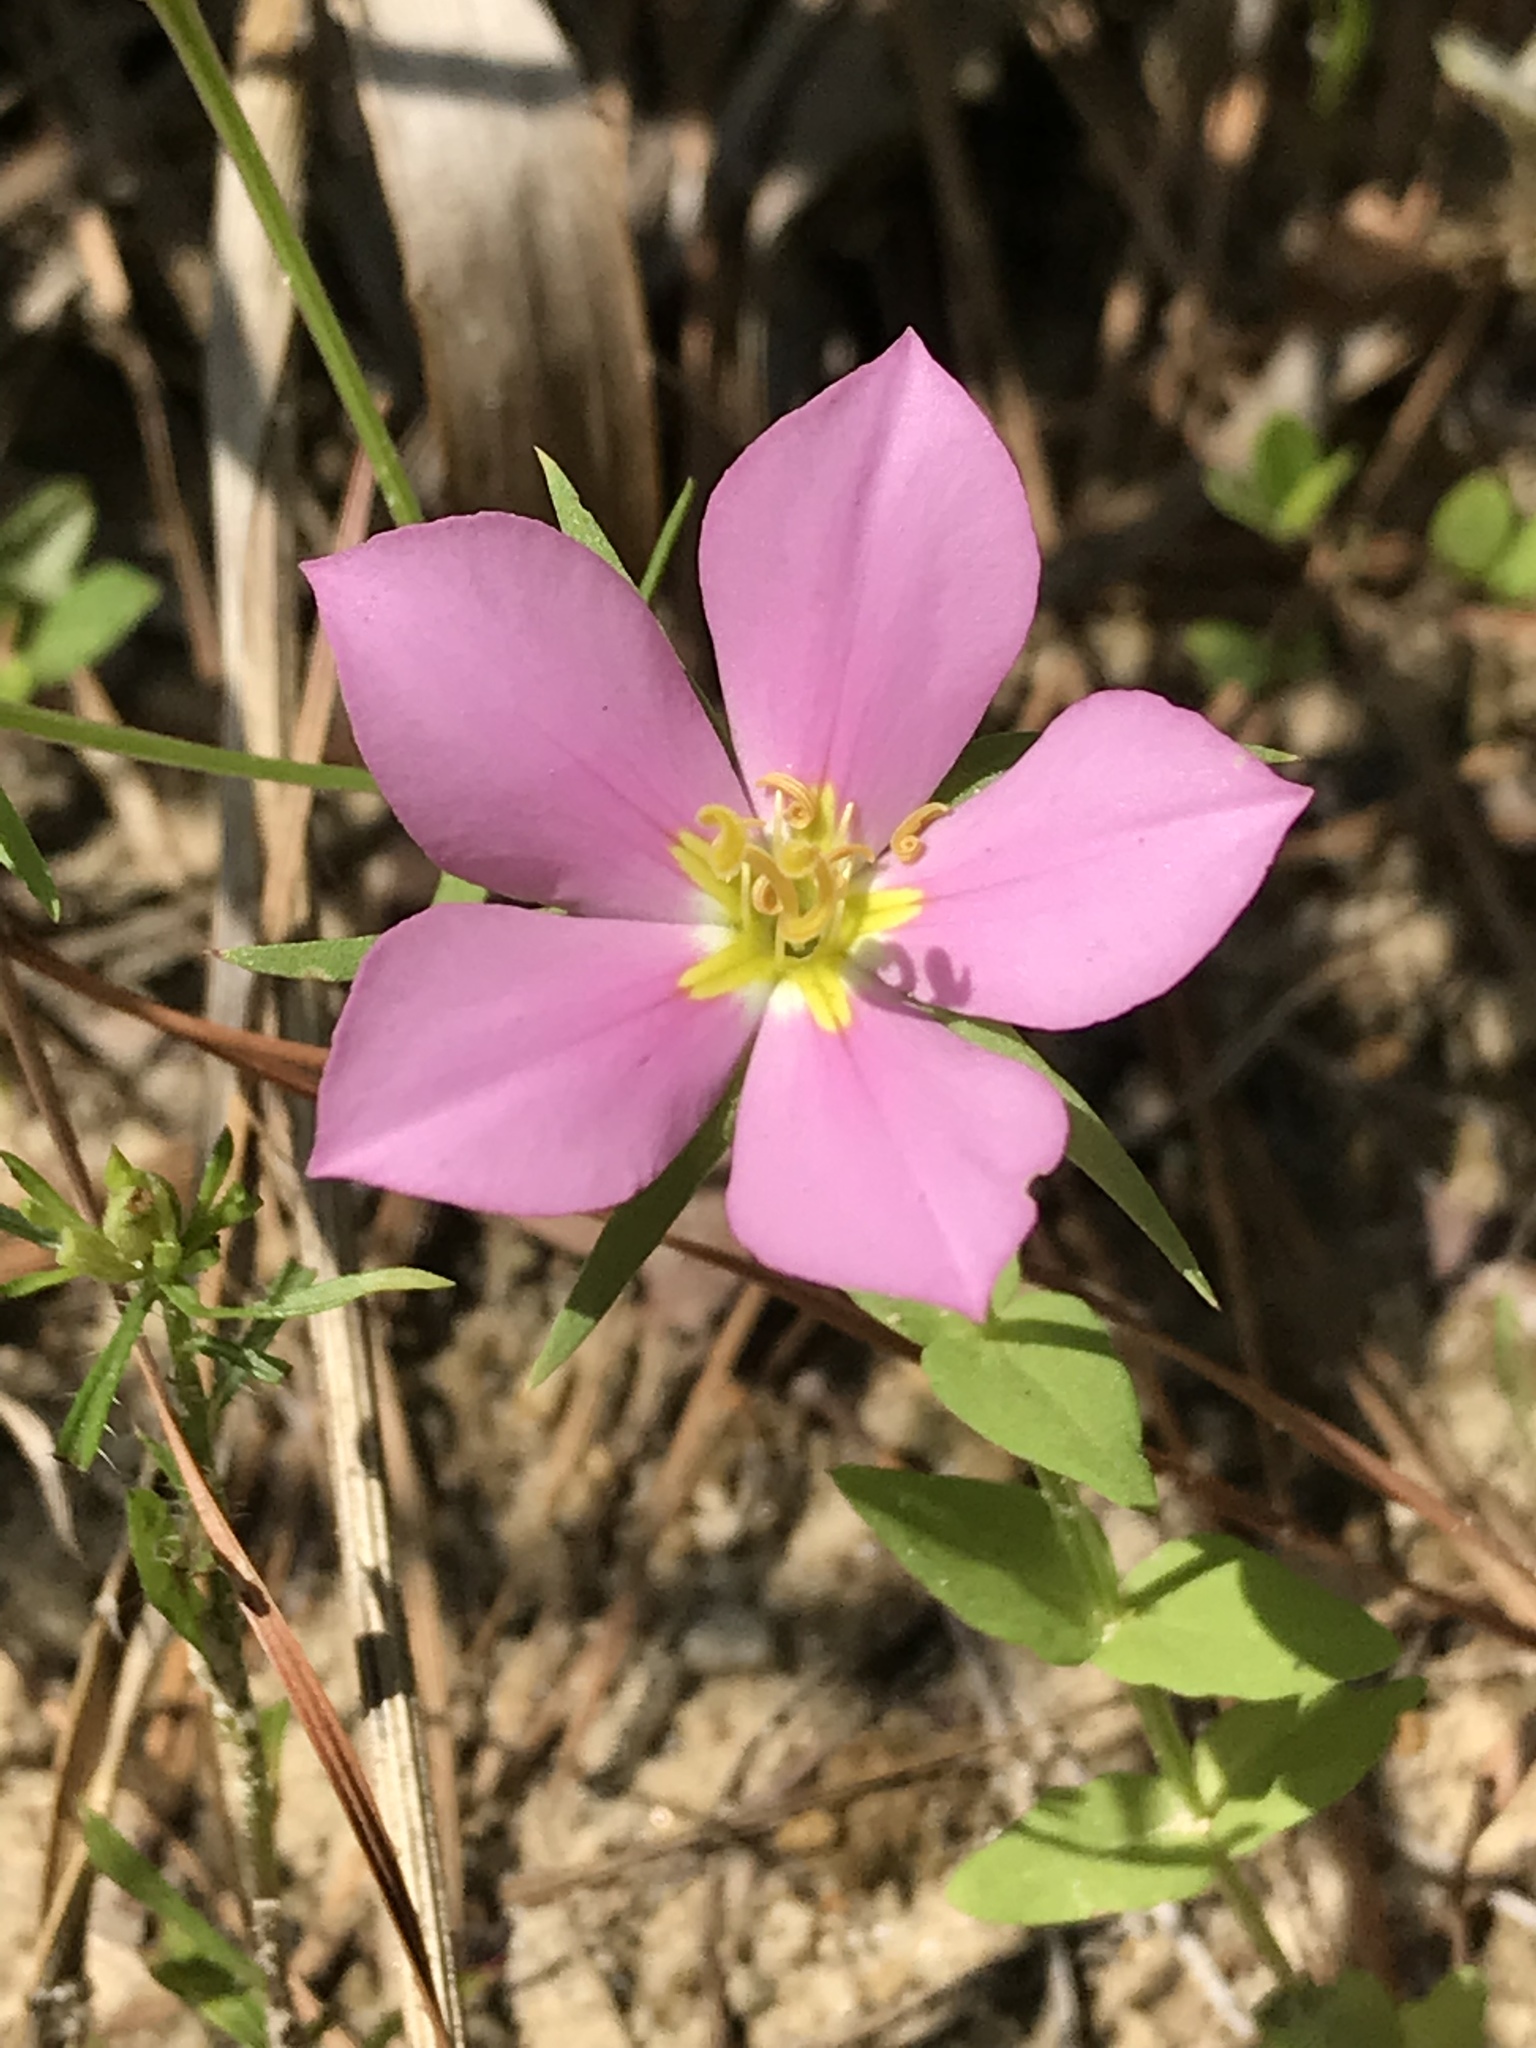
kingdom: Plantae
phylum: Tracheophyta
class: Magnoliopsida
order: Gentianales
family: Gentianaceae
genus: Sabatia
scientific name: Sabatia campestris
